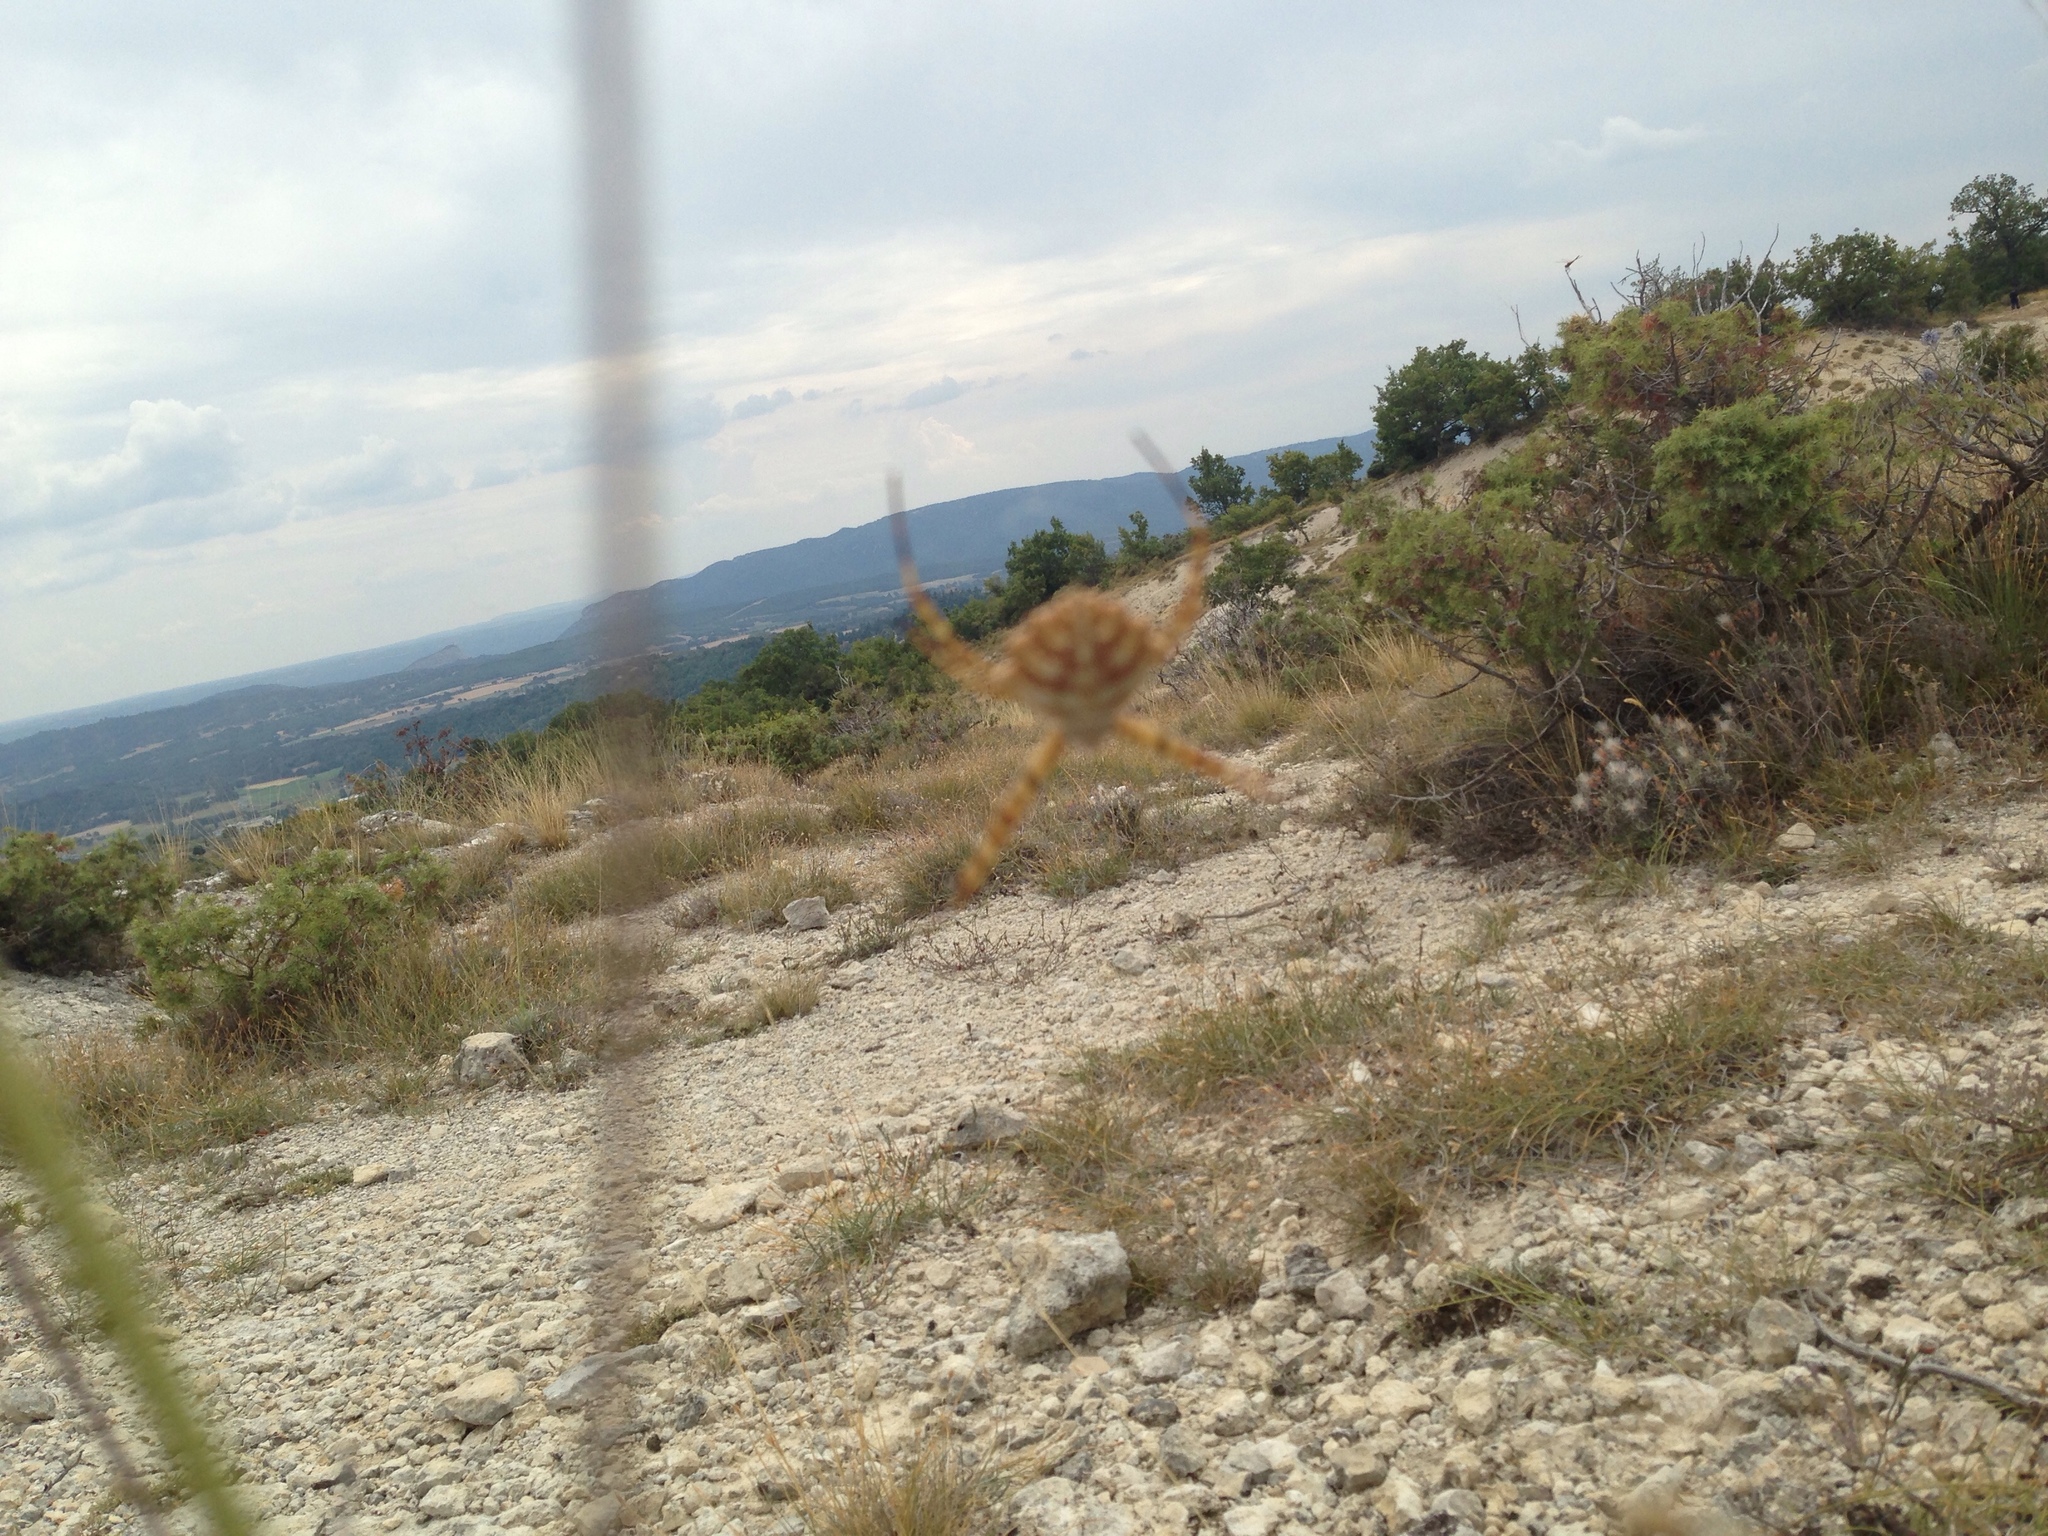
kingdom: Animalia
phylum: Arthropoda
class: Arachnida
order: Araneae
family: Araneidae
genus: Argiope
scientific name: Argiope lobata
